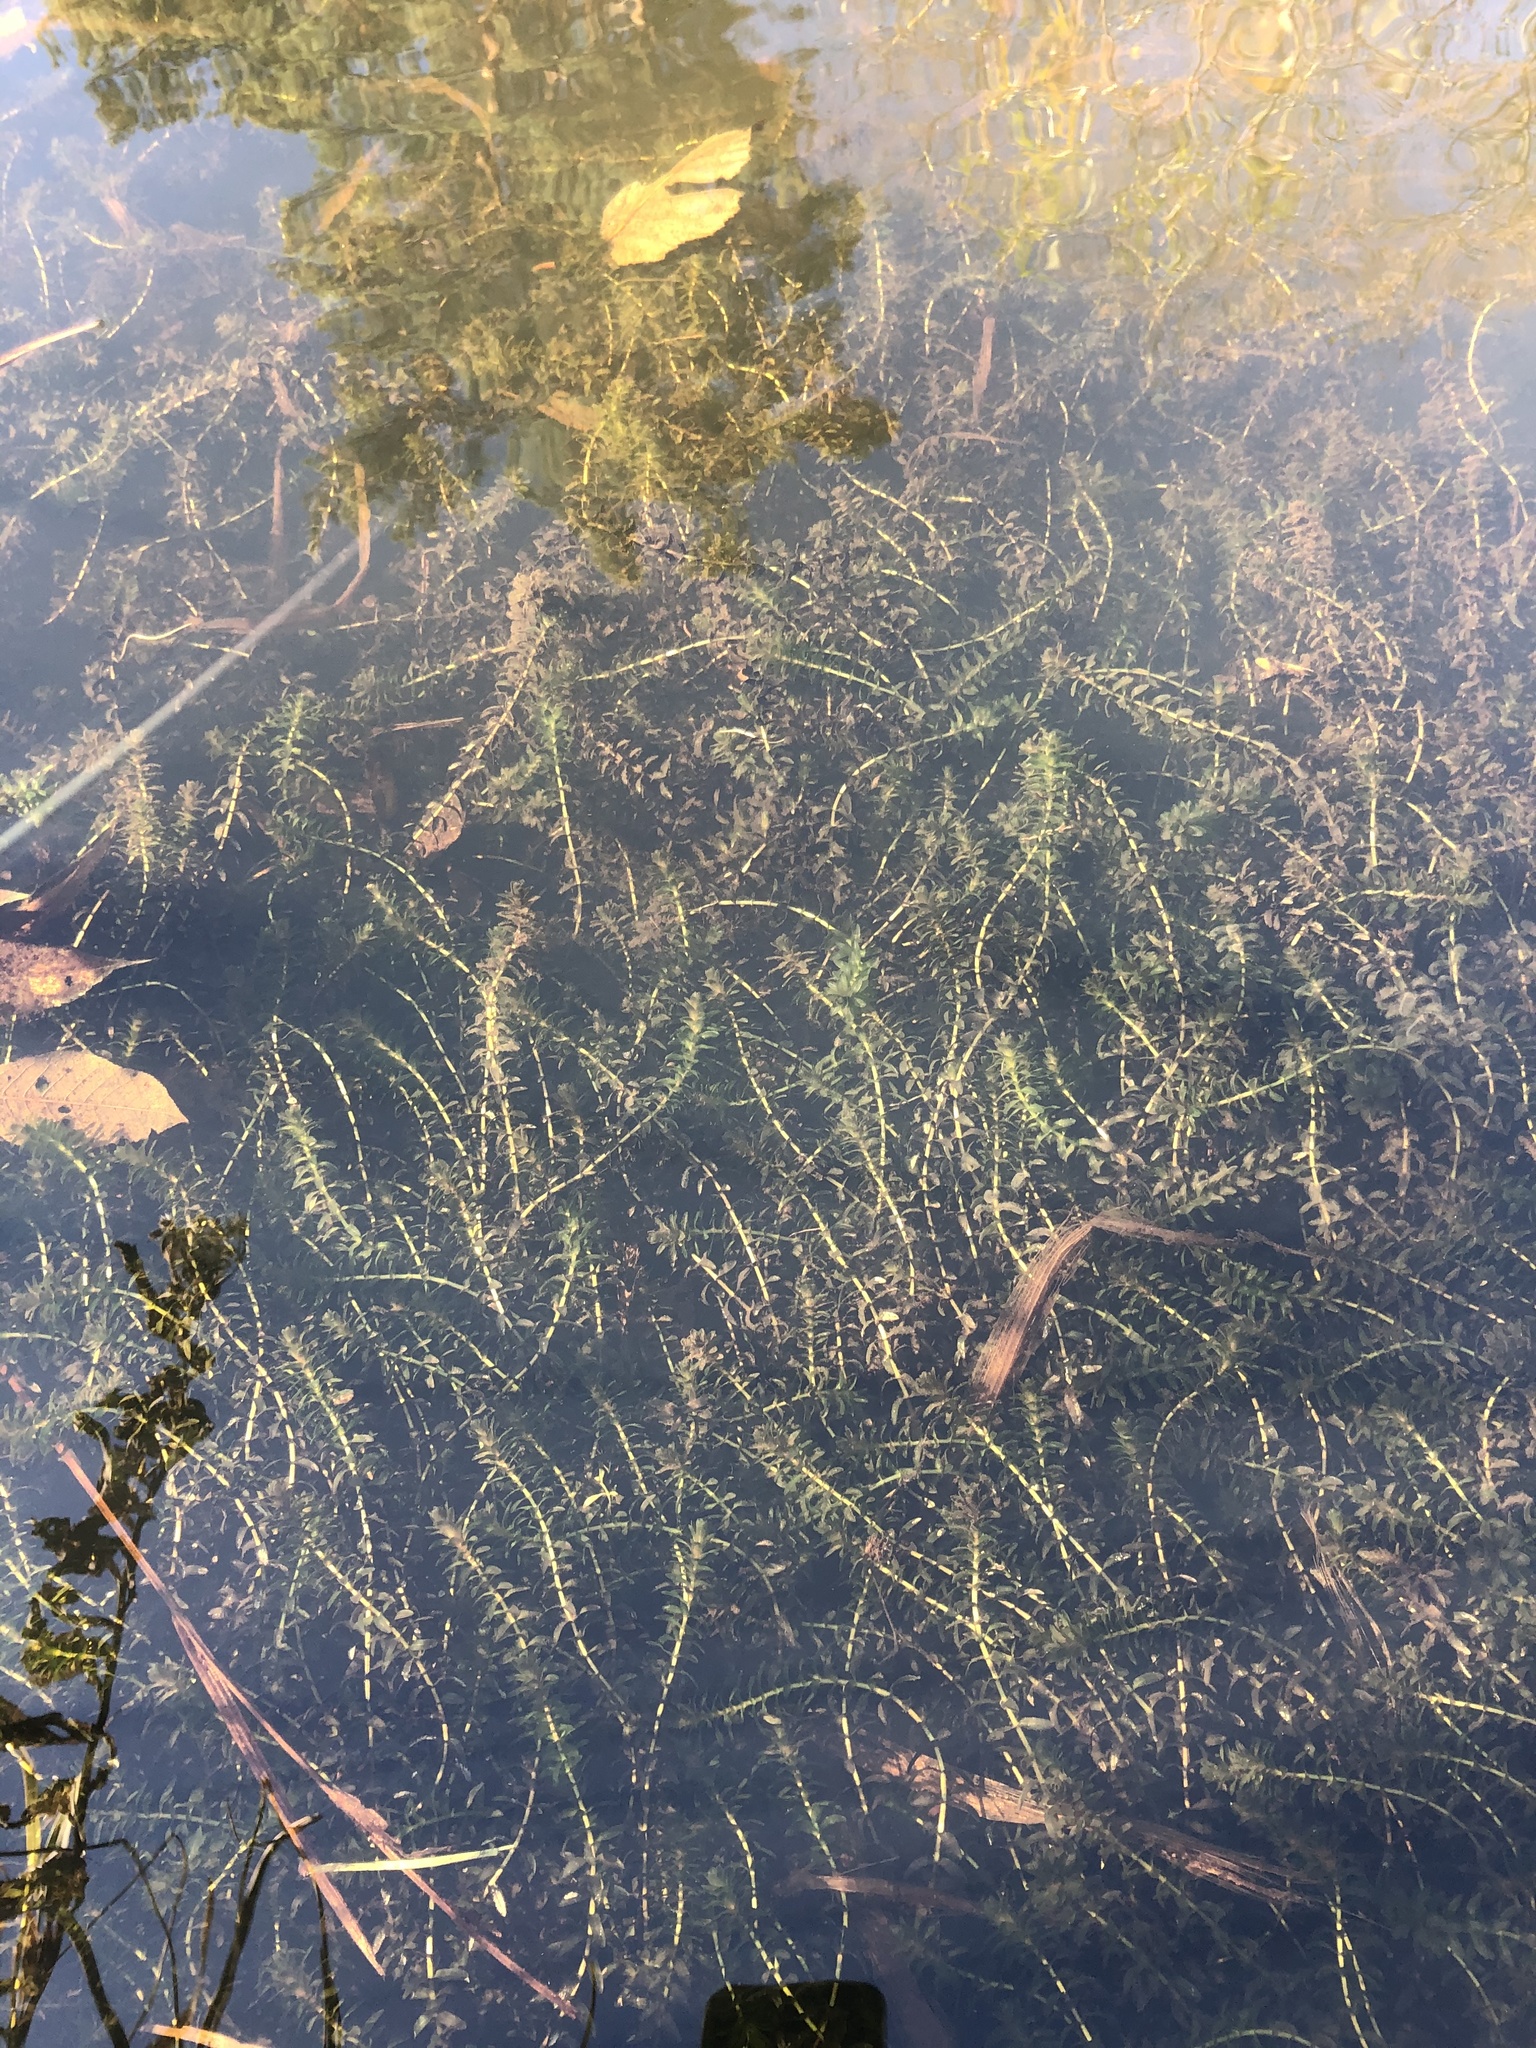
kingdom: Plantae
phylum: Tracheophyta
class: Liliopsida
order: Alismatales
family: Hydrocharitaceae
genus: Elodea
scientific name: Elodea canadensis
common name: Canadian waterweed
